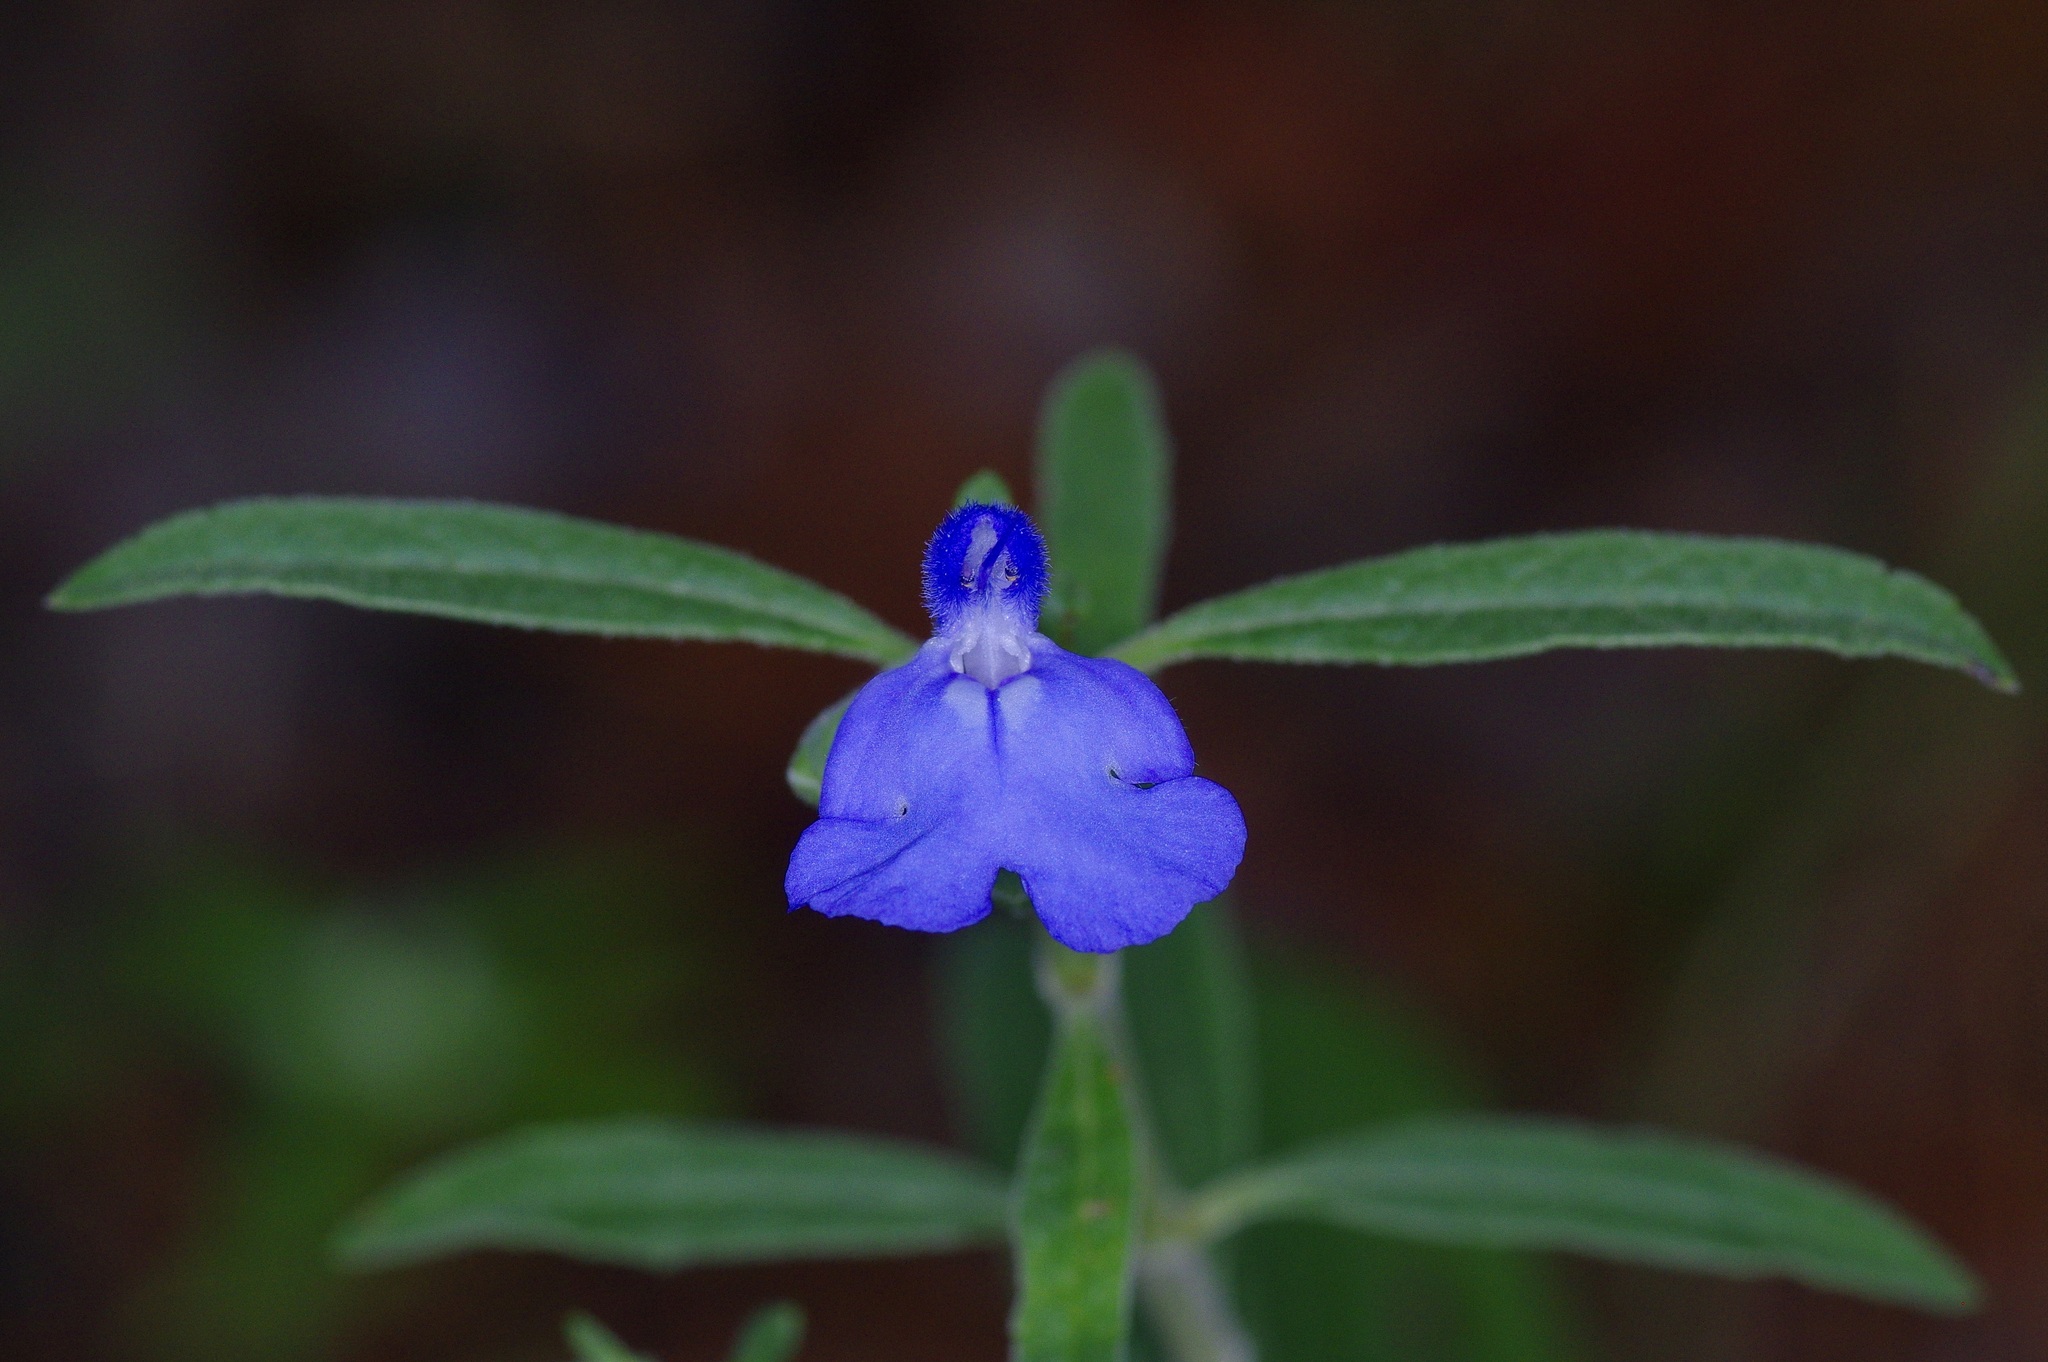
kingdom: Plantae
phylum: Tracheophyta
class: Magnoliopsida
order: Lamiales
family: Lamiaceae
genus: Salvia
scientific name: Salvia azurea
